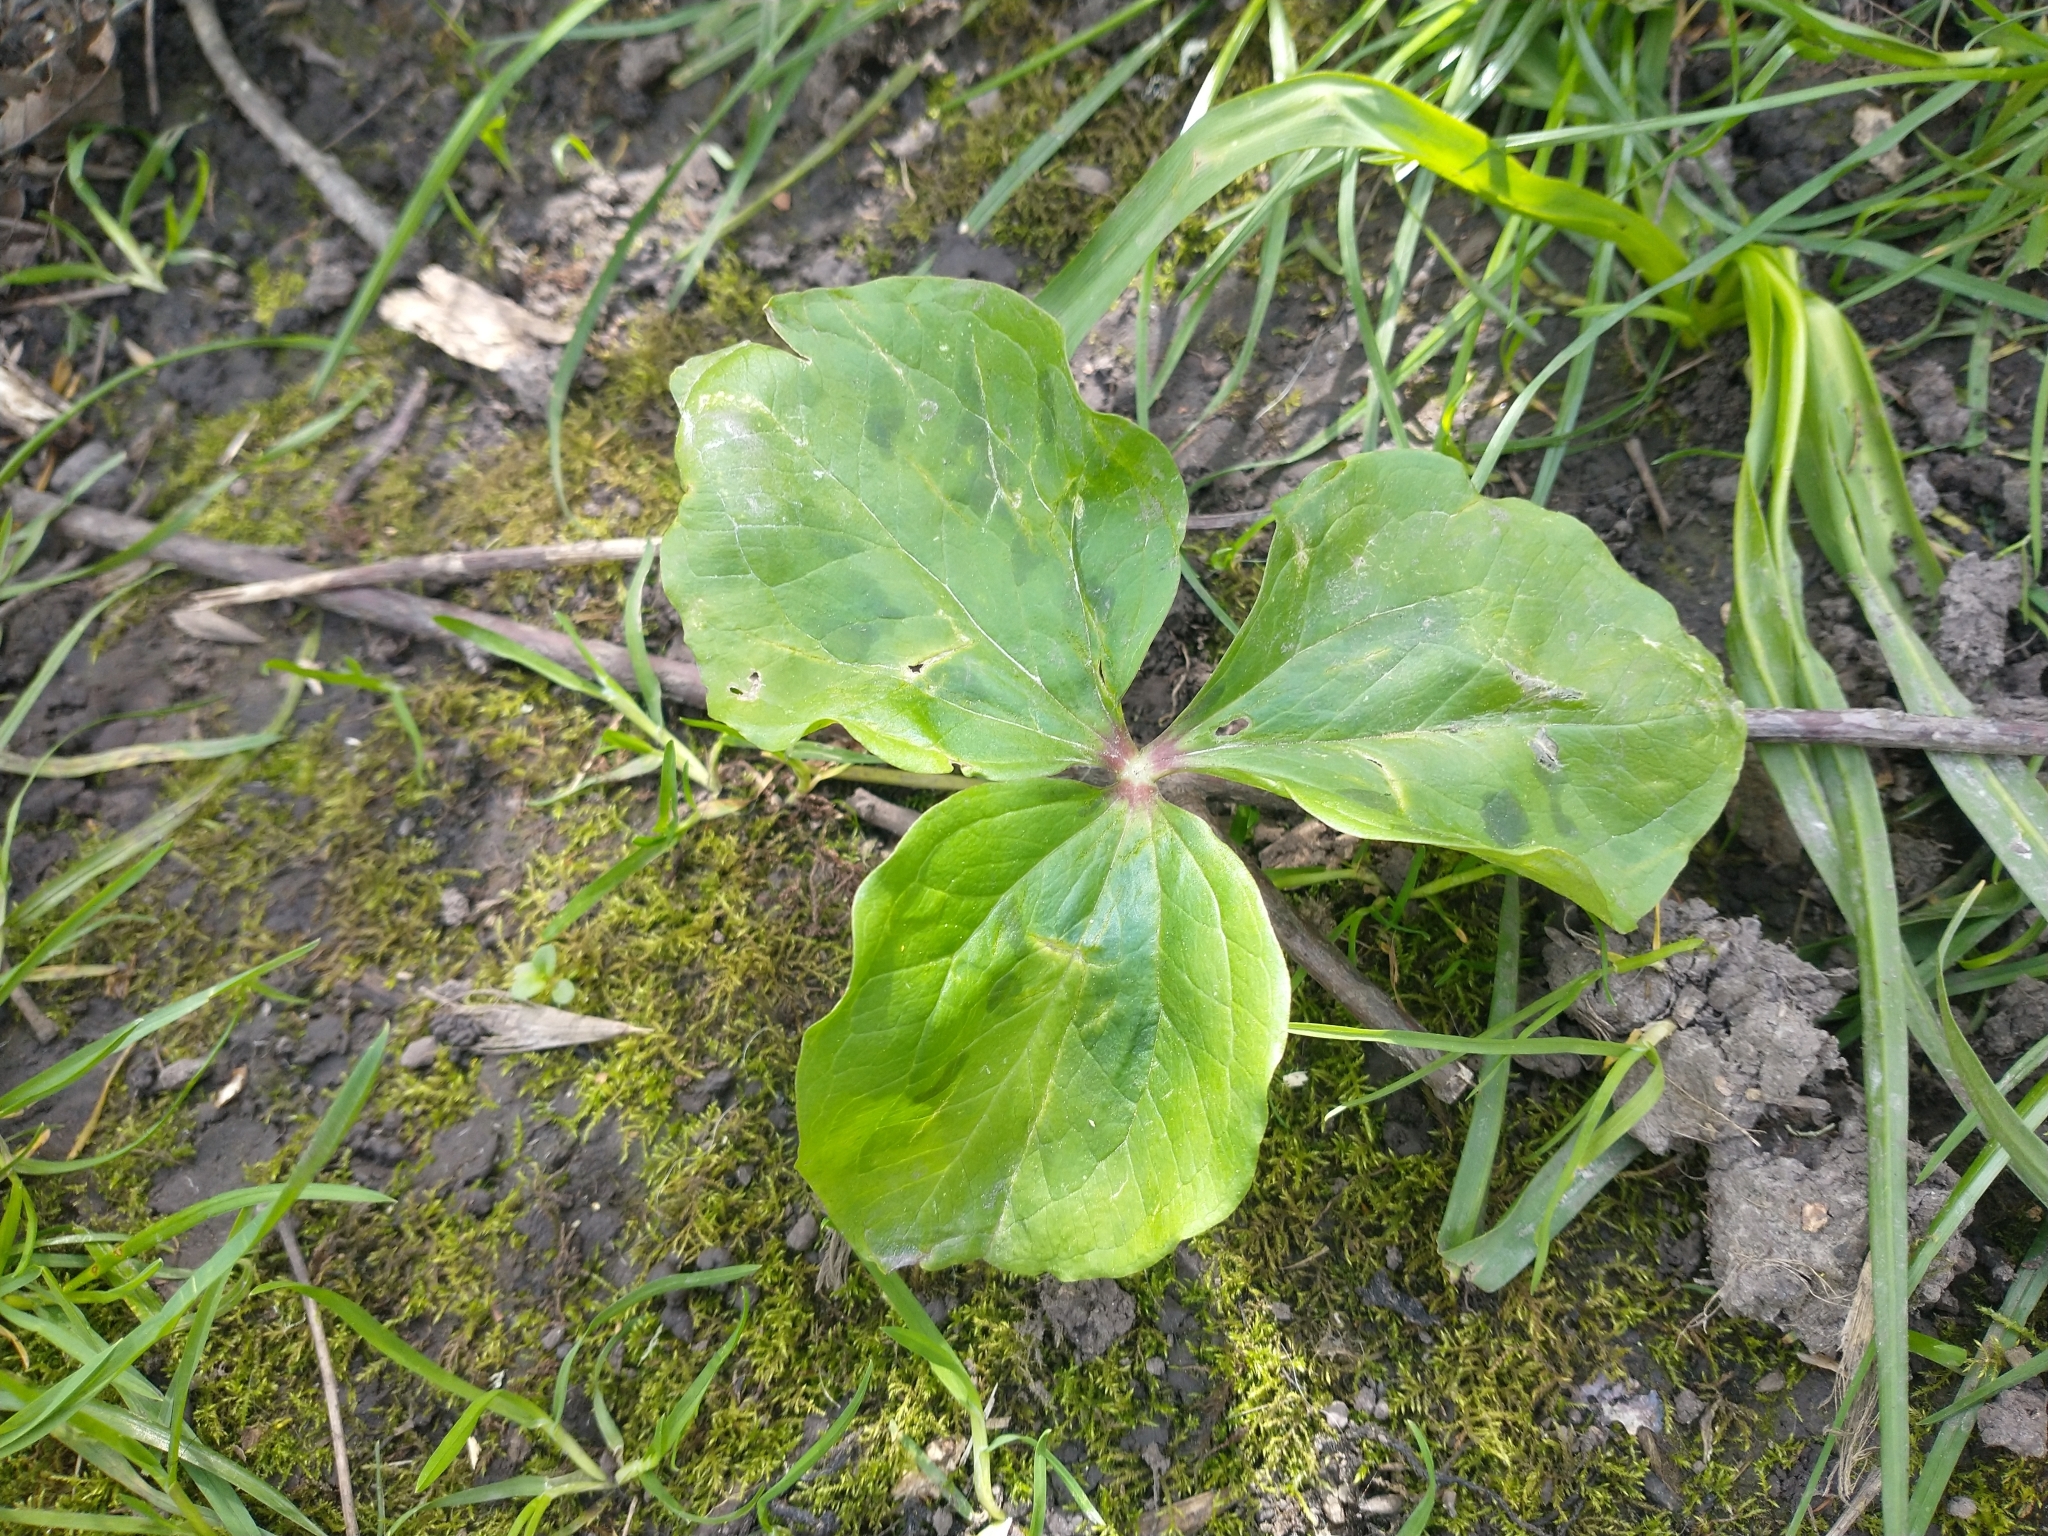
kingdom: Plantae
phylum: Tracheophyta
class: Liliopsida
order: Liliales
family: Melanthiaceae
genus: Trillium
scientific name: Trillium albidum
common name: Freeman's trillium
